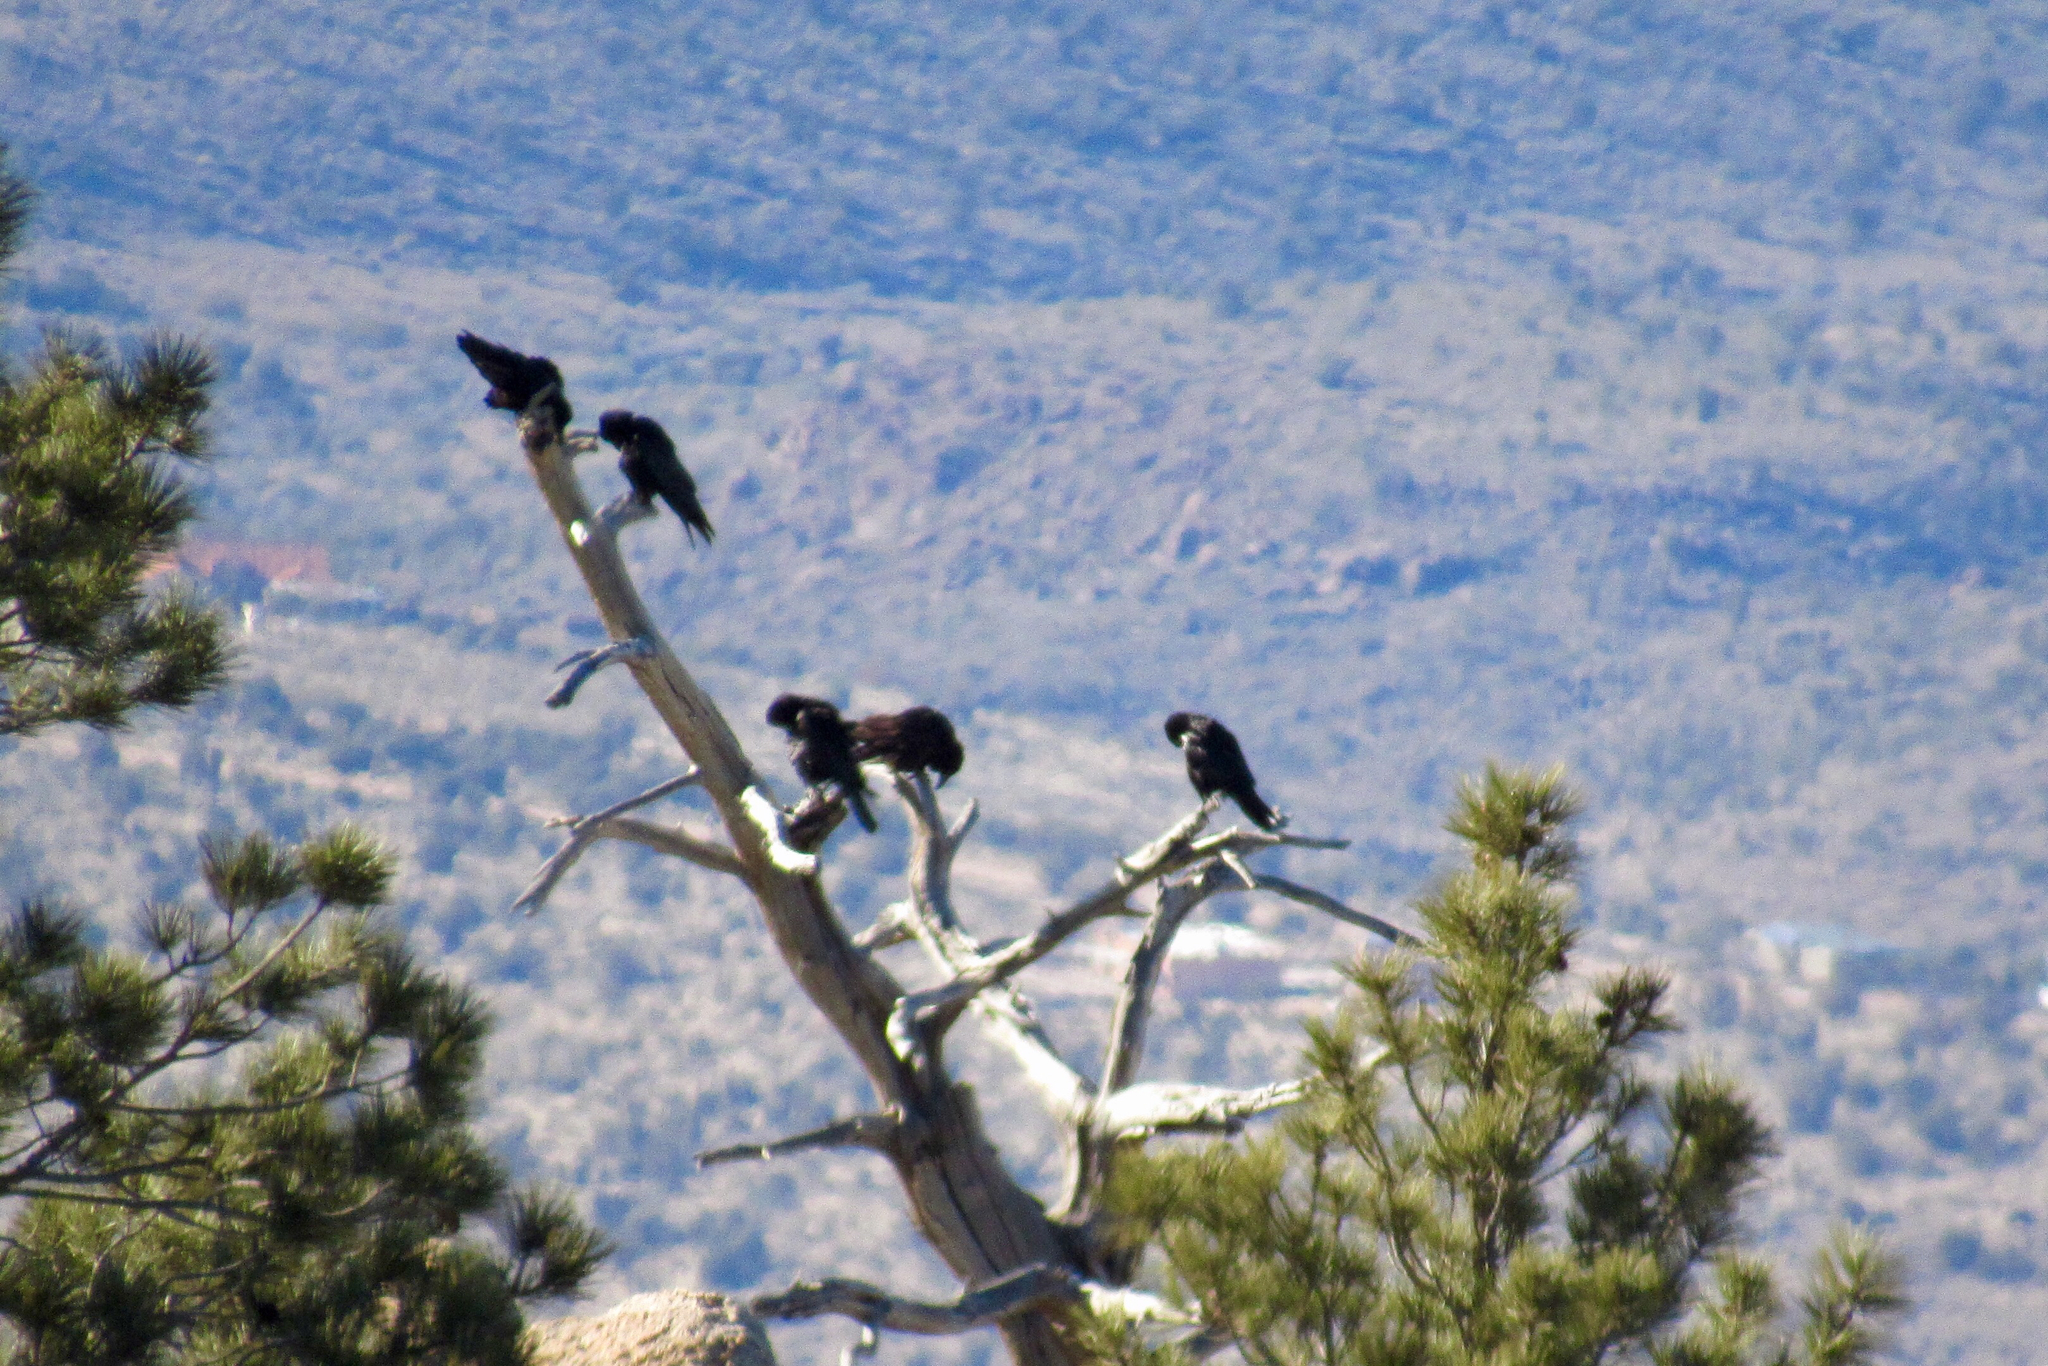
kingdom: Animalia
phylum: Chordata
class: Aves
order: Passeriformes
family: Corvidae
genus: Corvus
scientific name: Corvus corax
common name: Common raven
